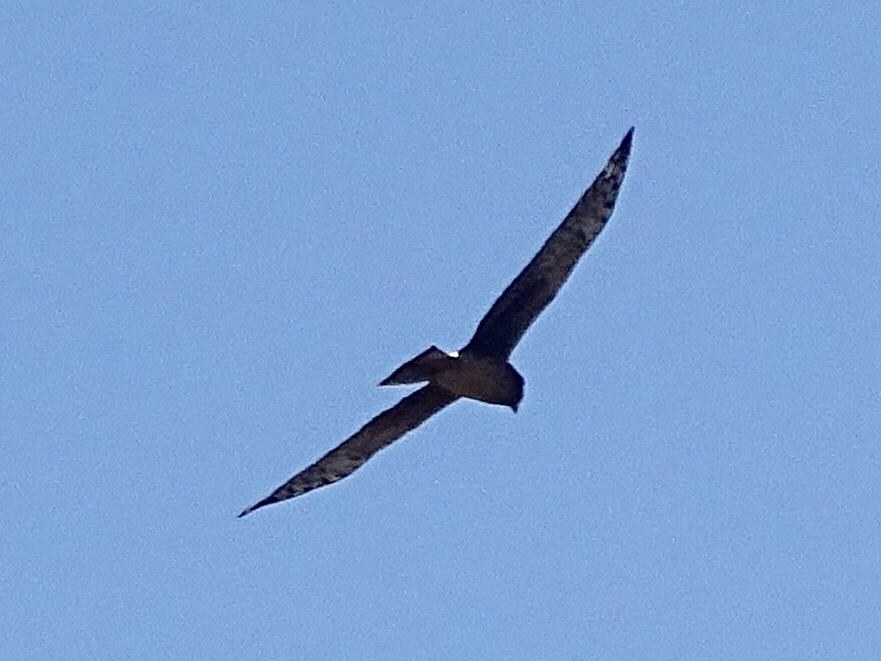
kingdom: Animalia
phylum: Chordata
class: Aves
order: Accipitriformes
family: Accipitridae
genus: Circus
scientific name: Circus cyaneus
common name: Hen harrier
